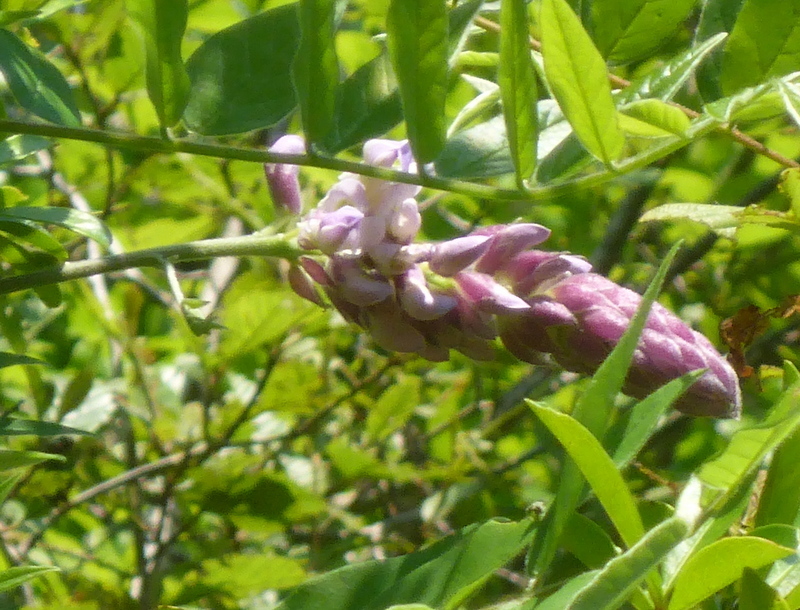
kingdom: Plantae
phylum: Tracheophyta
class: Magnoliopsida
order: Fabales
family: Fabaceae
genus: Wisteria
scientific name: Wisteria frutescens
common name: American wisteria
